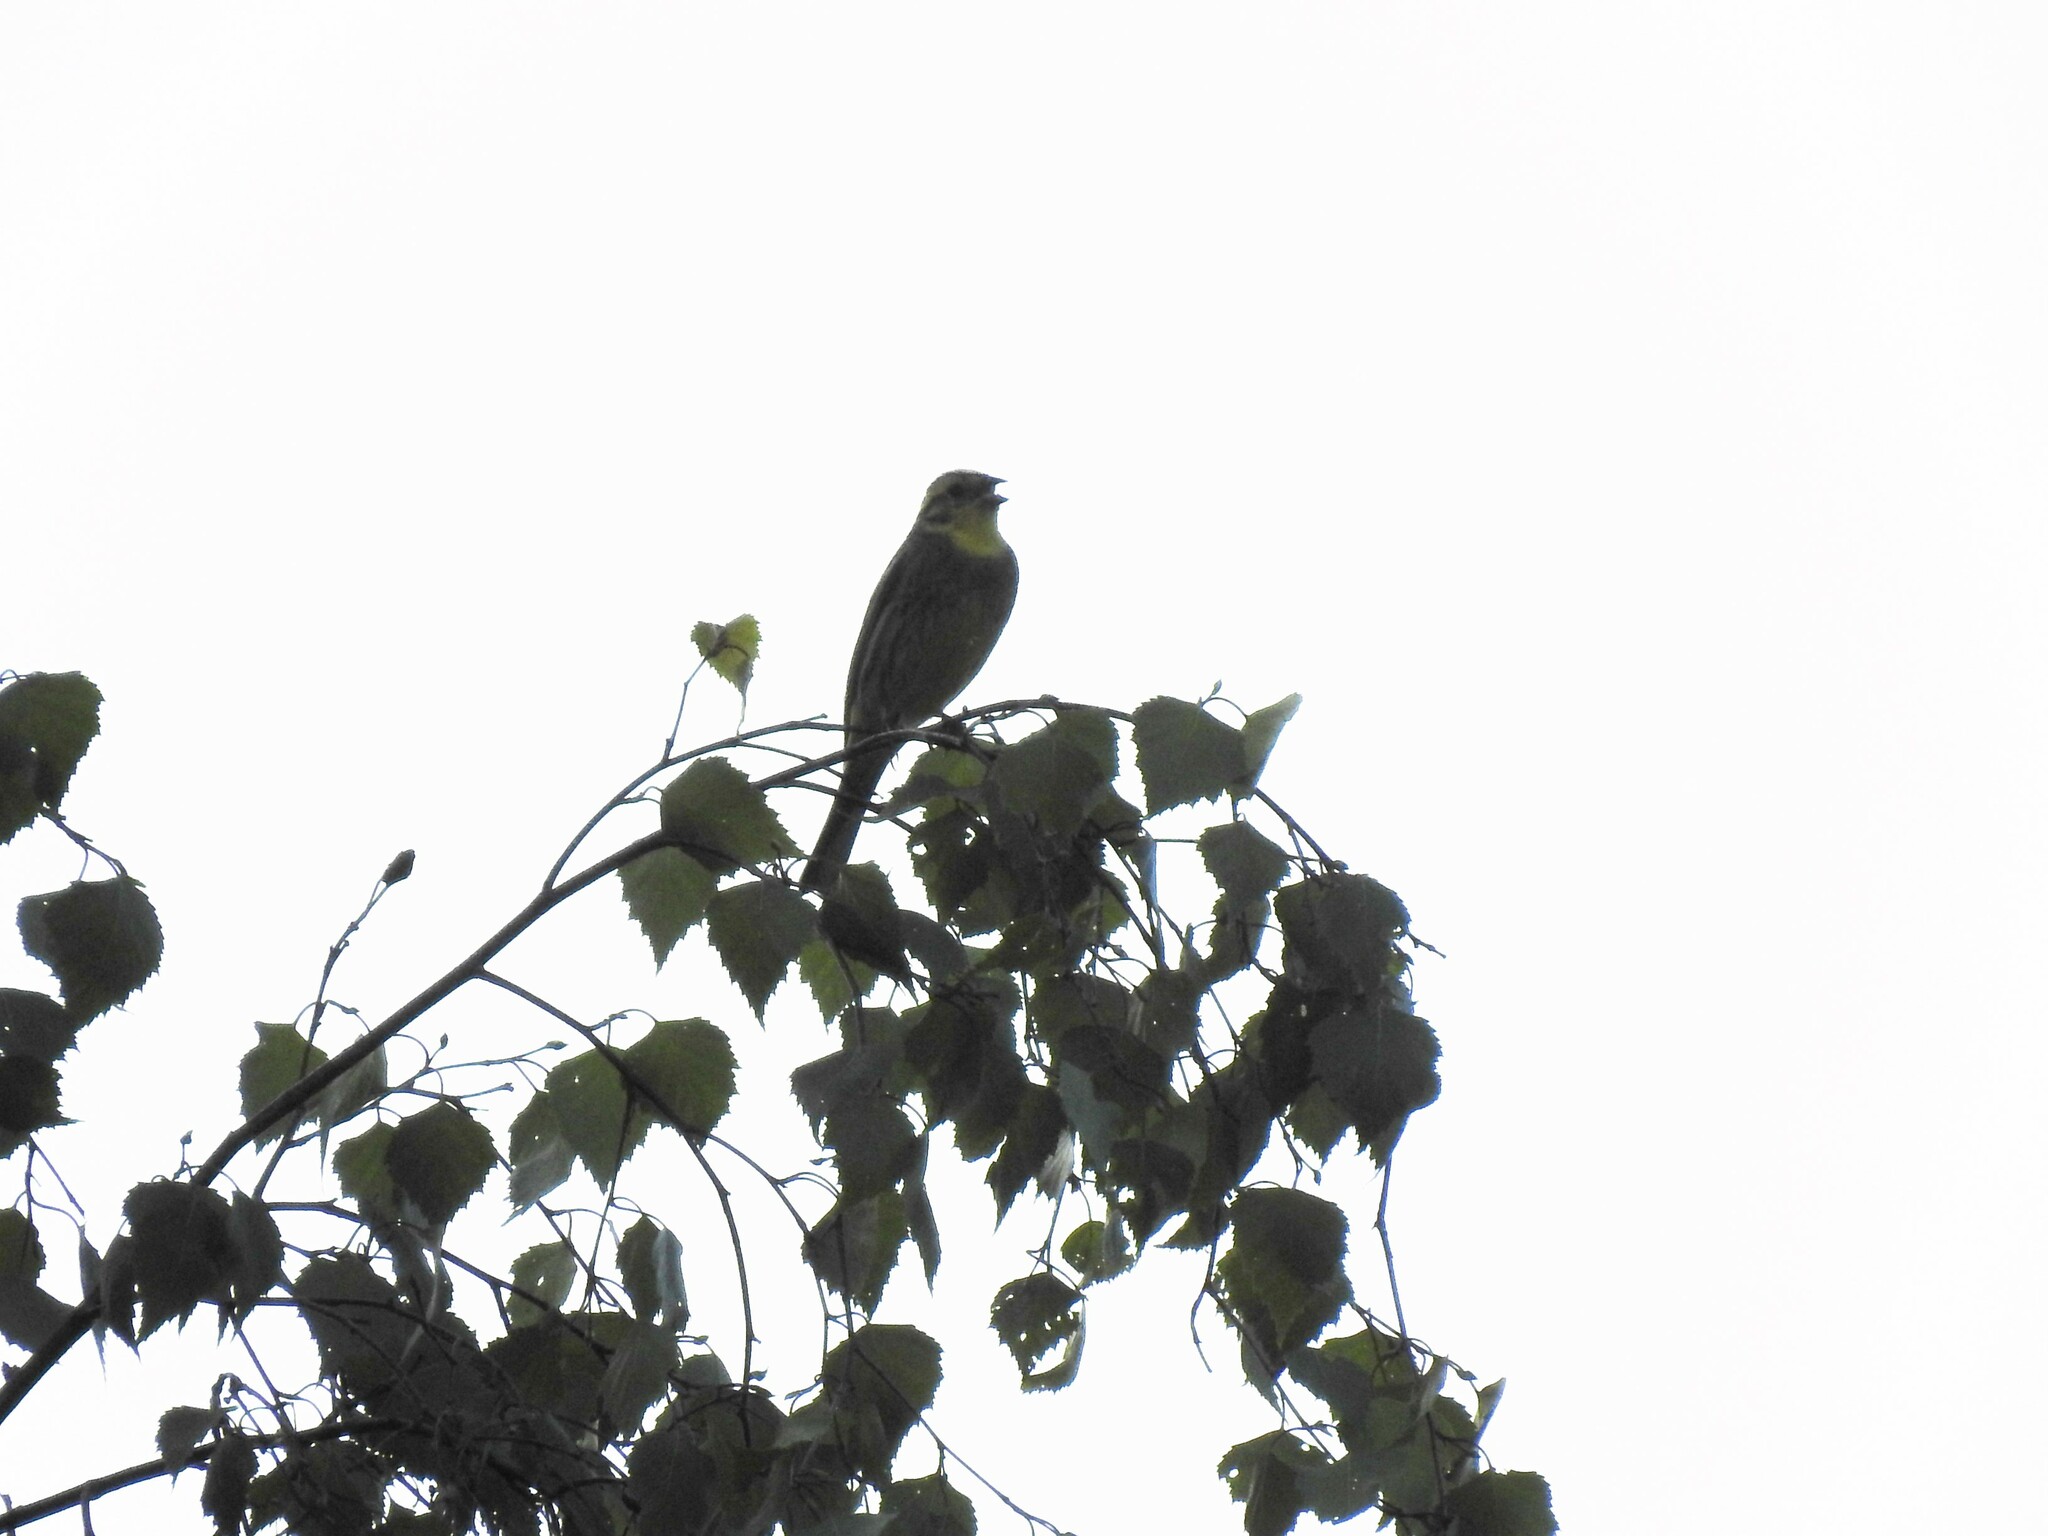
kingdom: Animalia
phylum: Chordata
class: Aves
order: Passeriformes
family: Emberizidae
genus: Emberiza
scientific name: Emberiza citrinella
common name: Yellowhammer
